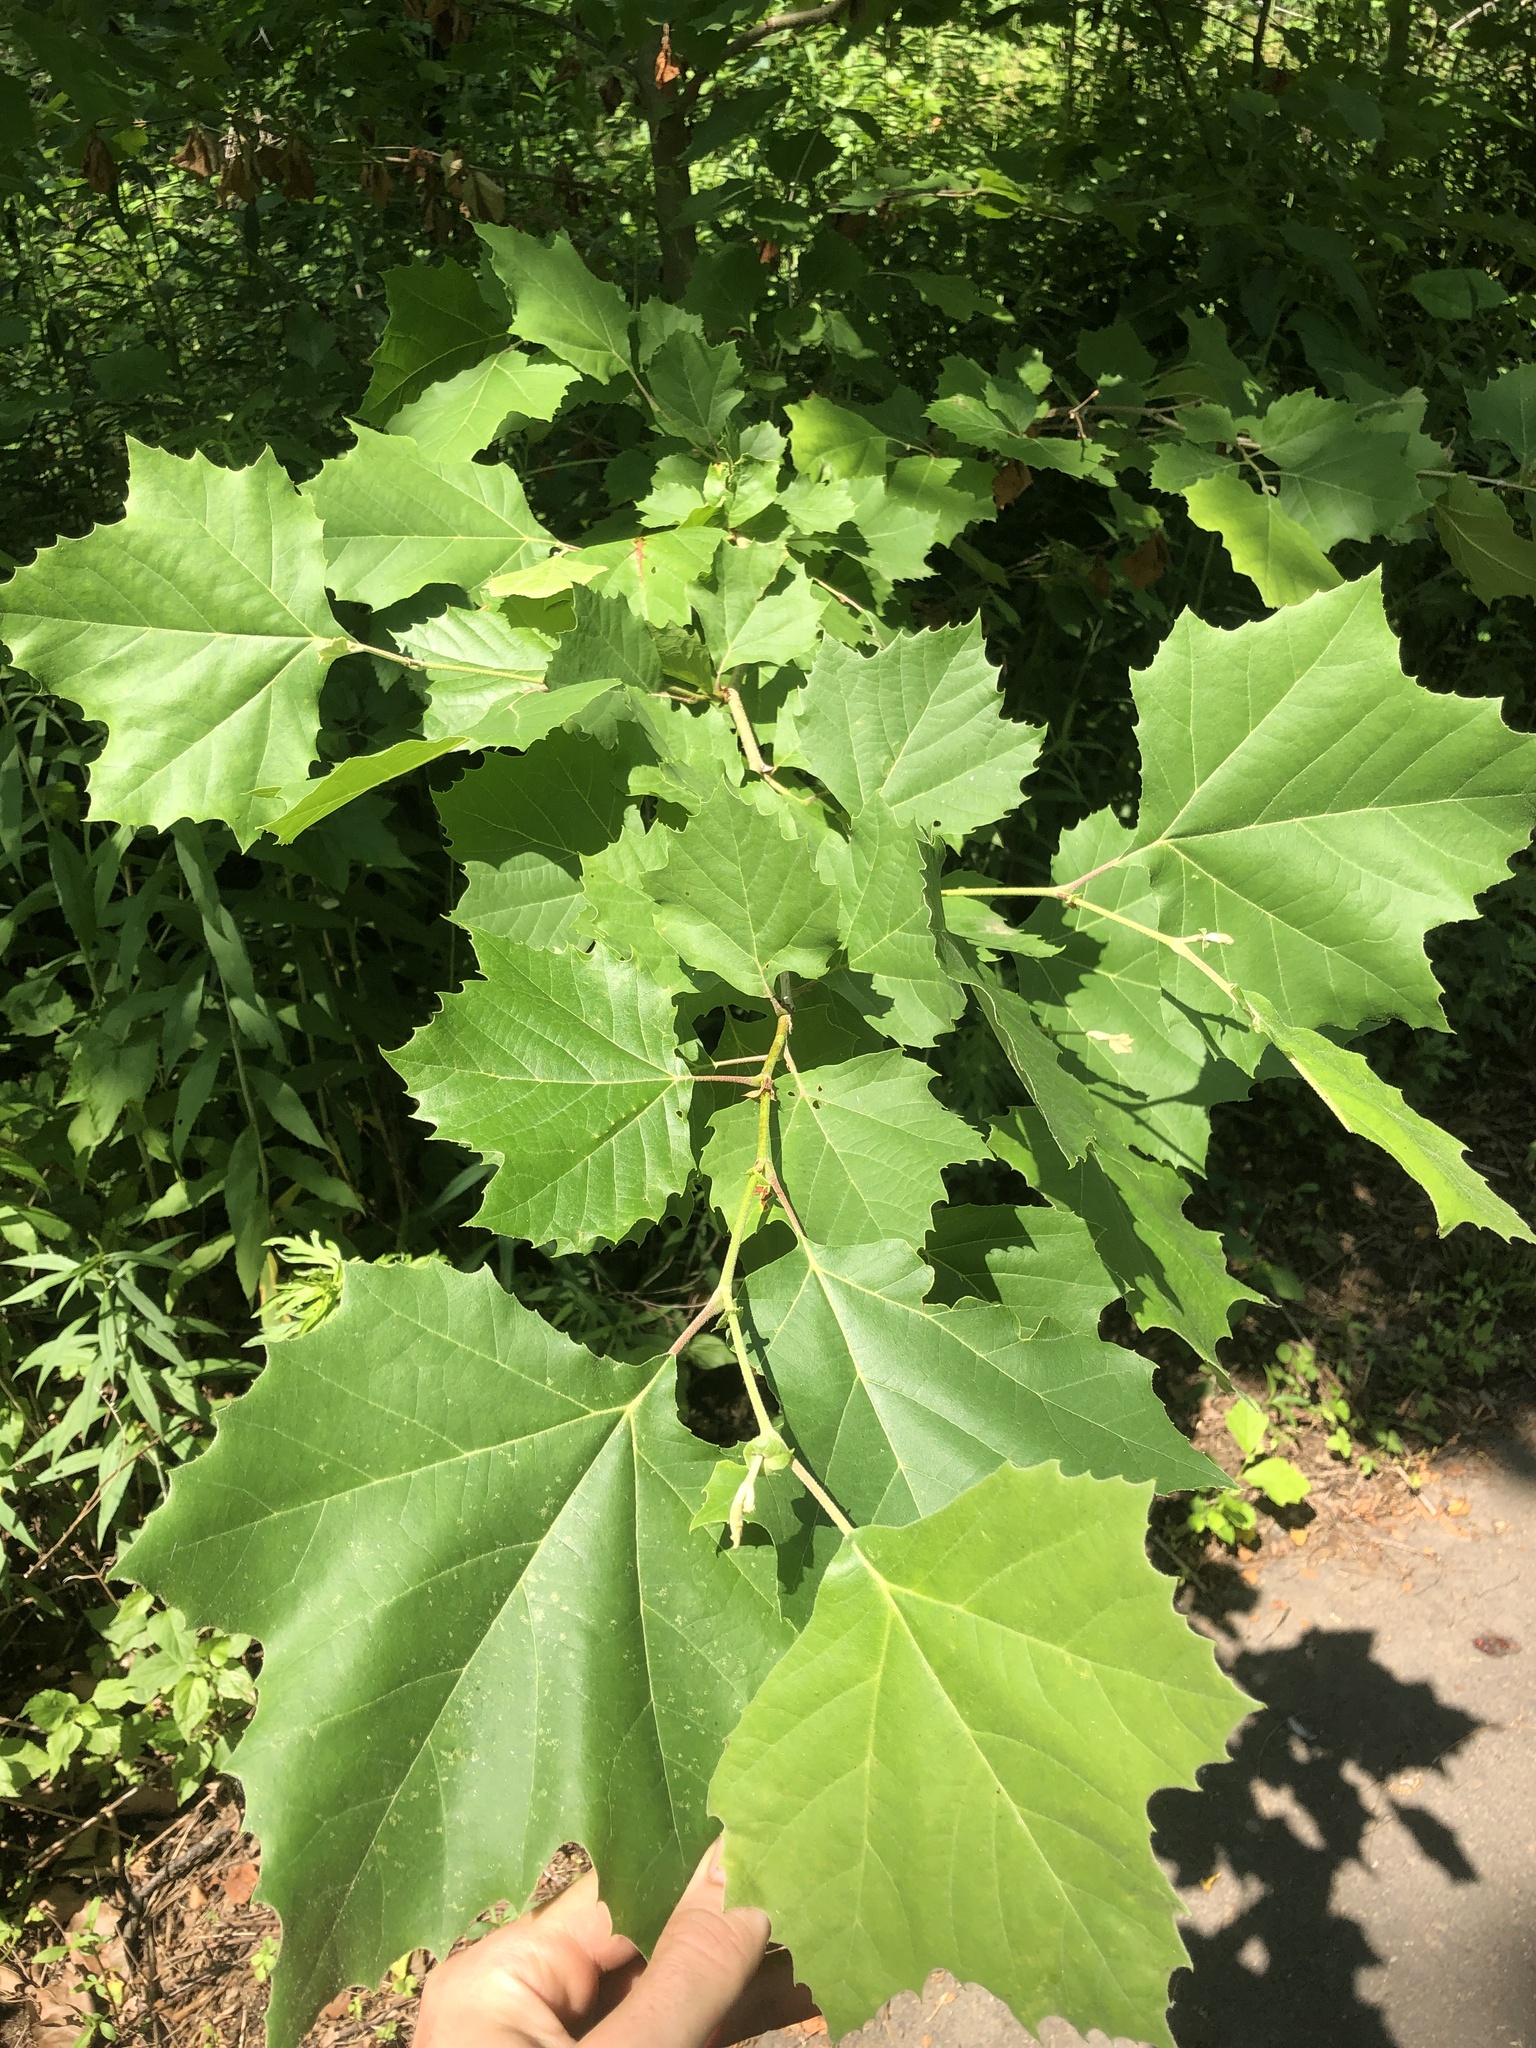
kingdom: Plantae
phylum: Tracheophyta
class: Magnoliopsida
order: Proteales
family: Platanaceae
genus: Platanus
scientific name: Platanus occidentalis
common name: American sycamore
